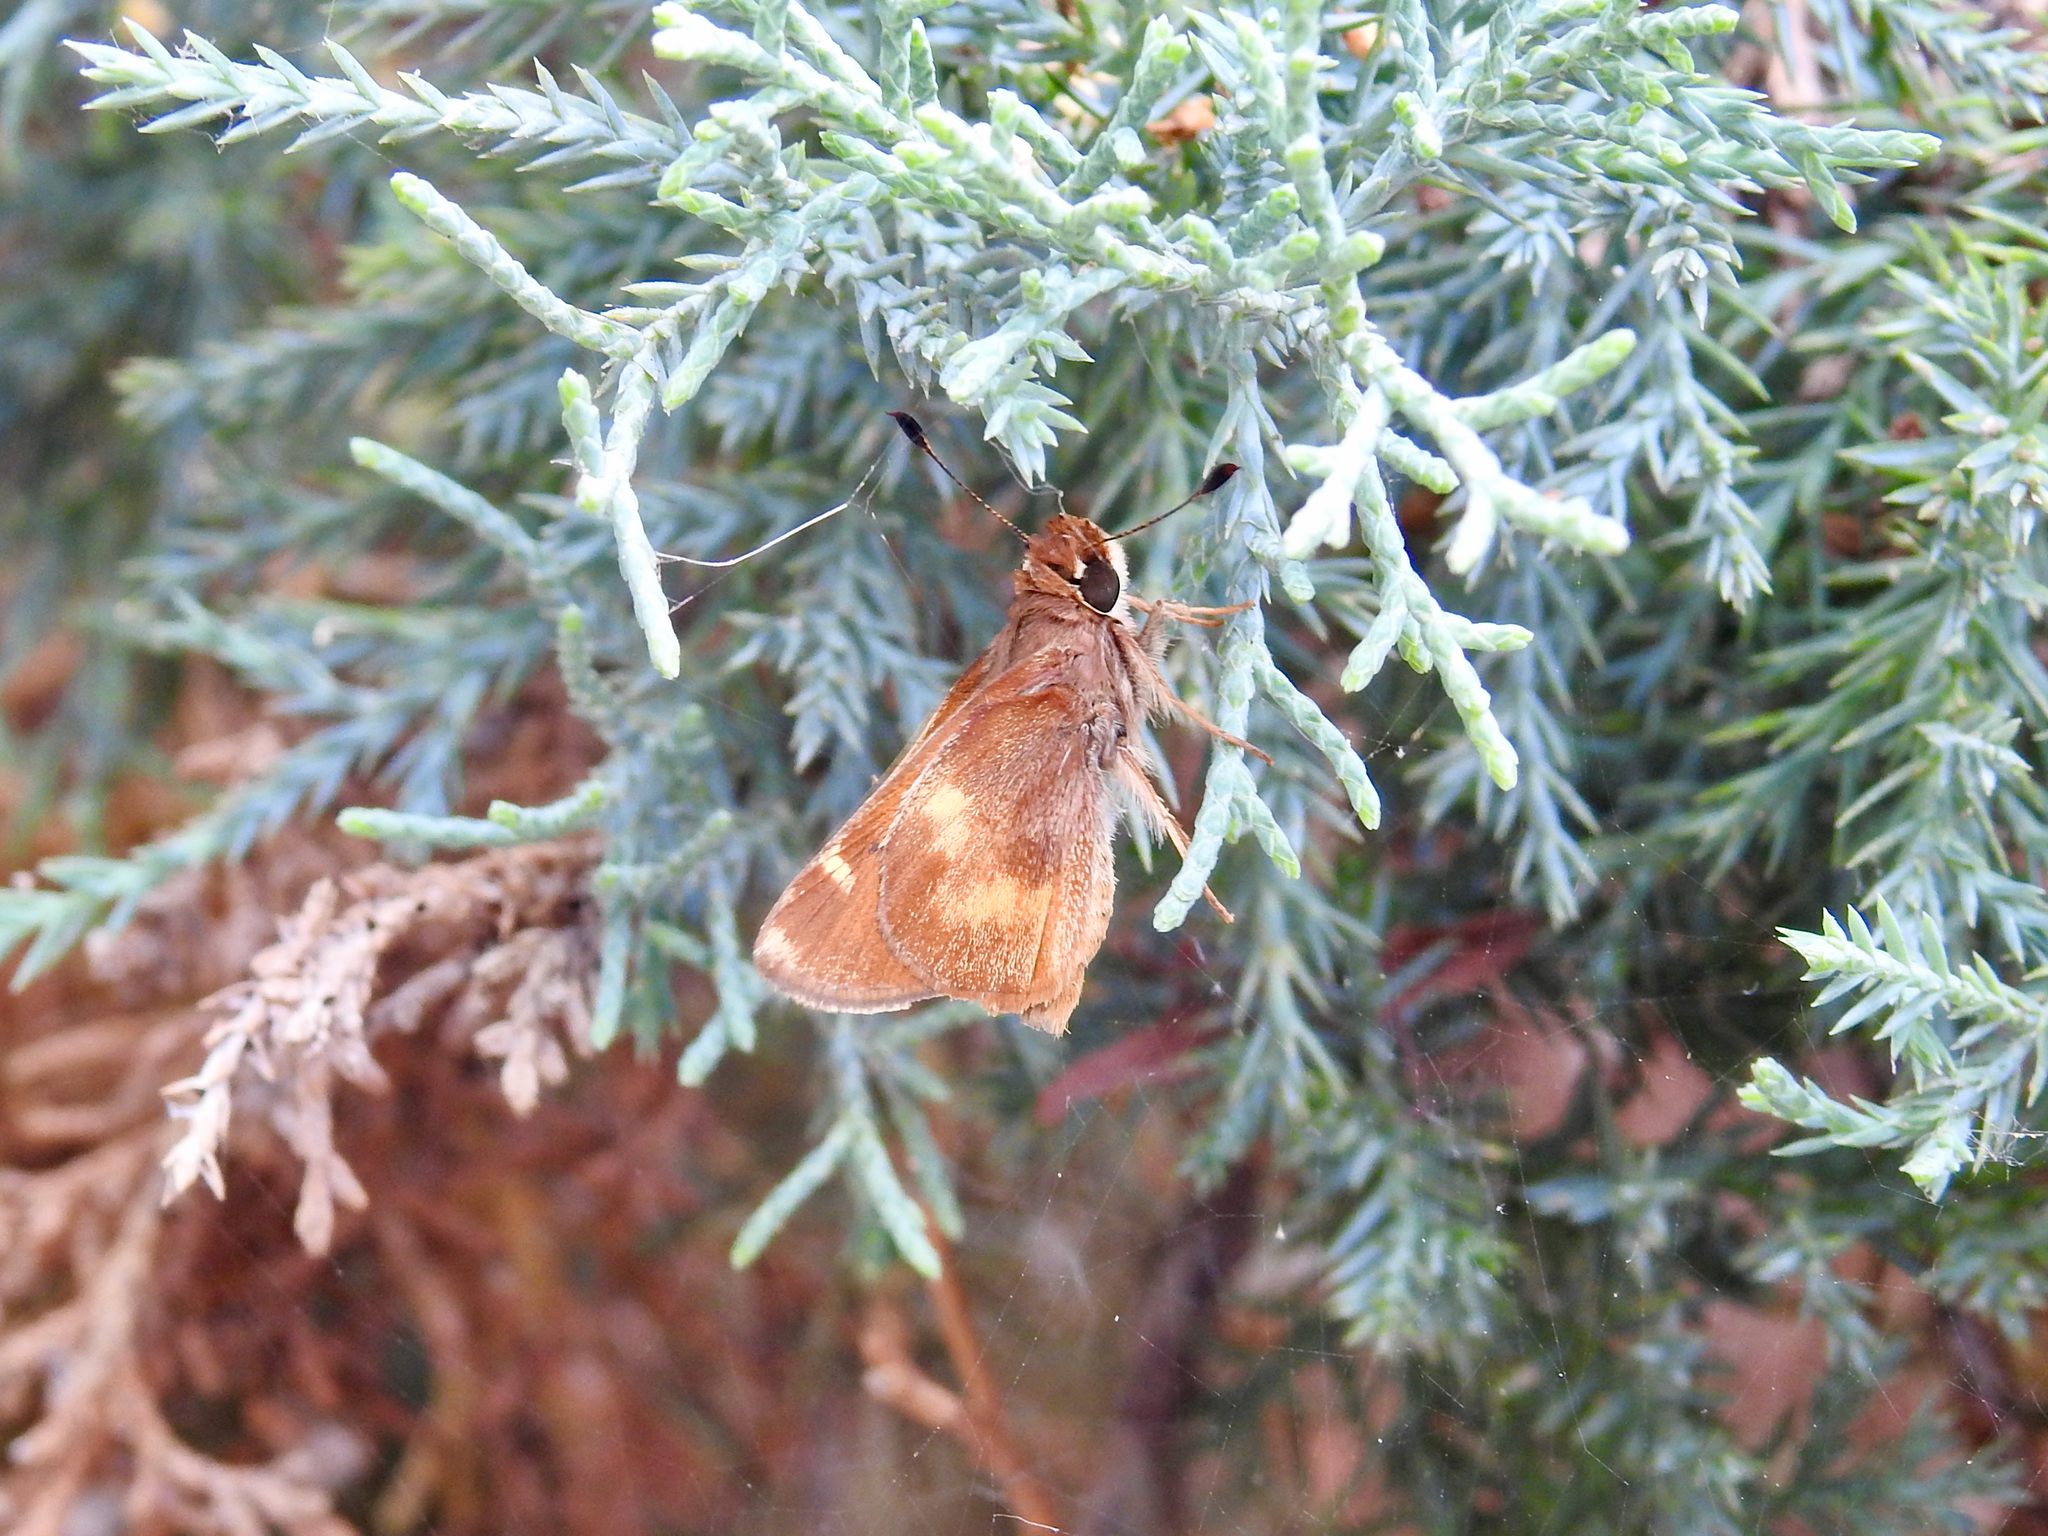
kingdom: Animalia
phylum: Arthropoda
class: Insecta
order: Lepidoptera
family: Hesperiidae
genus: Lon
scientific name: Lon melane
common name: Umber skipper
